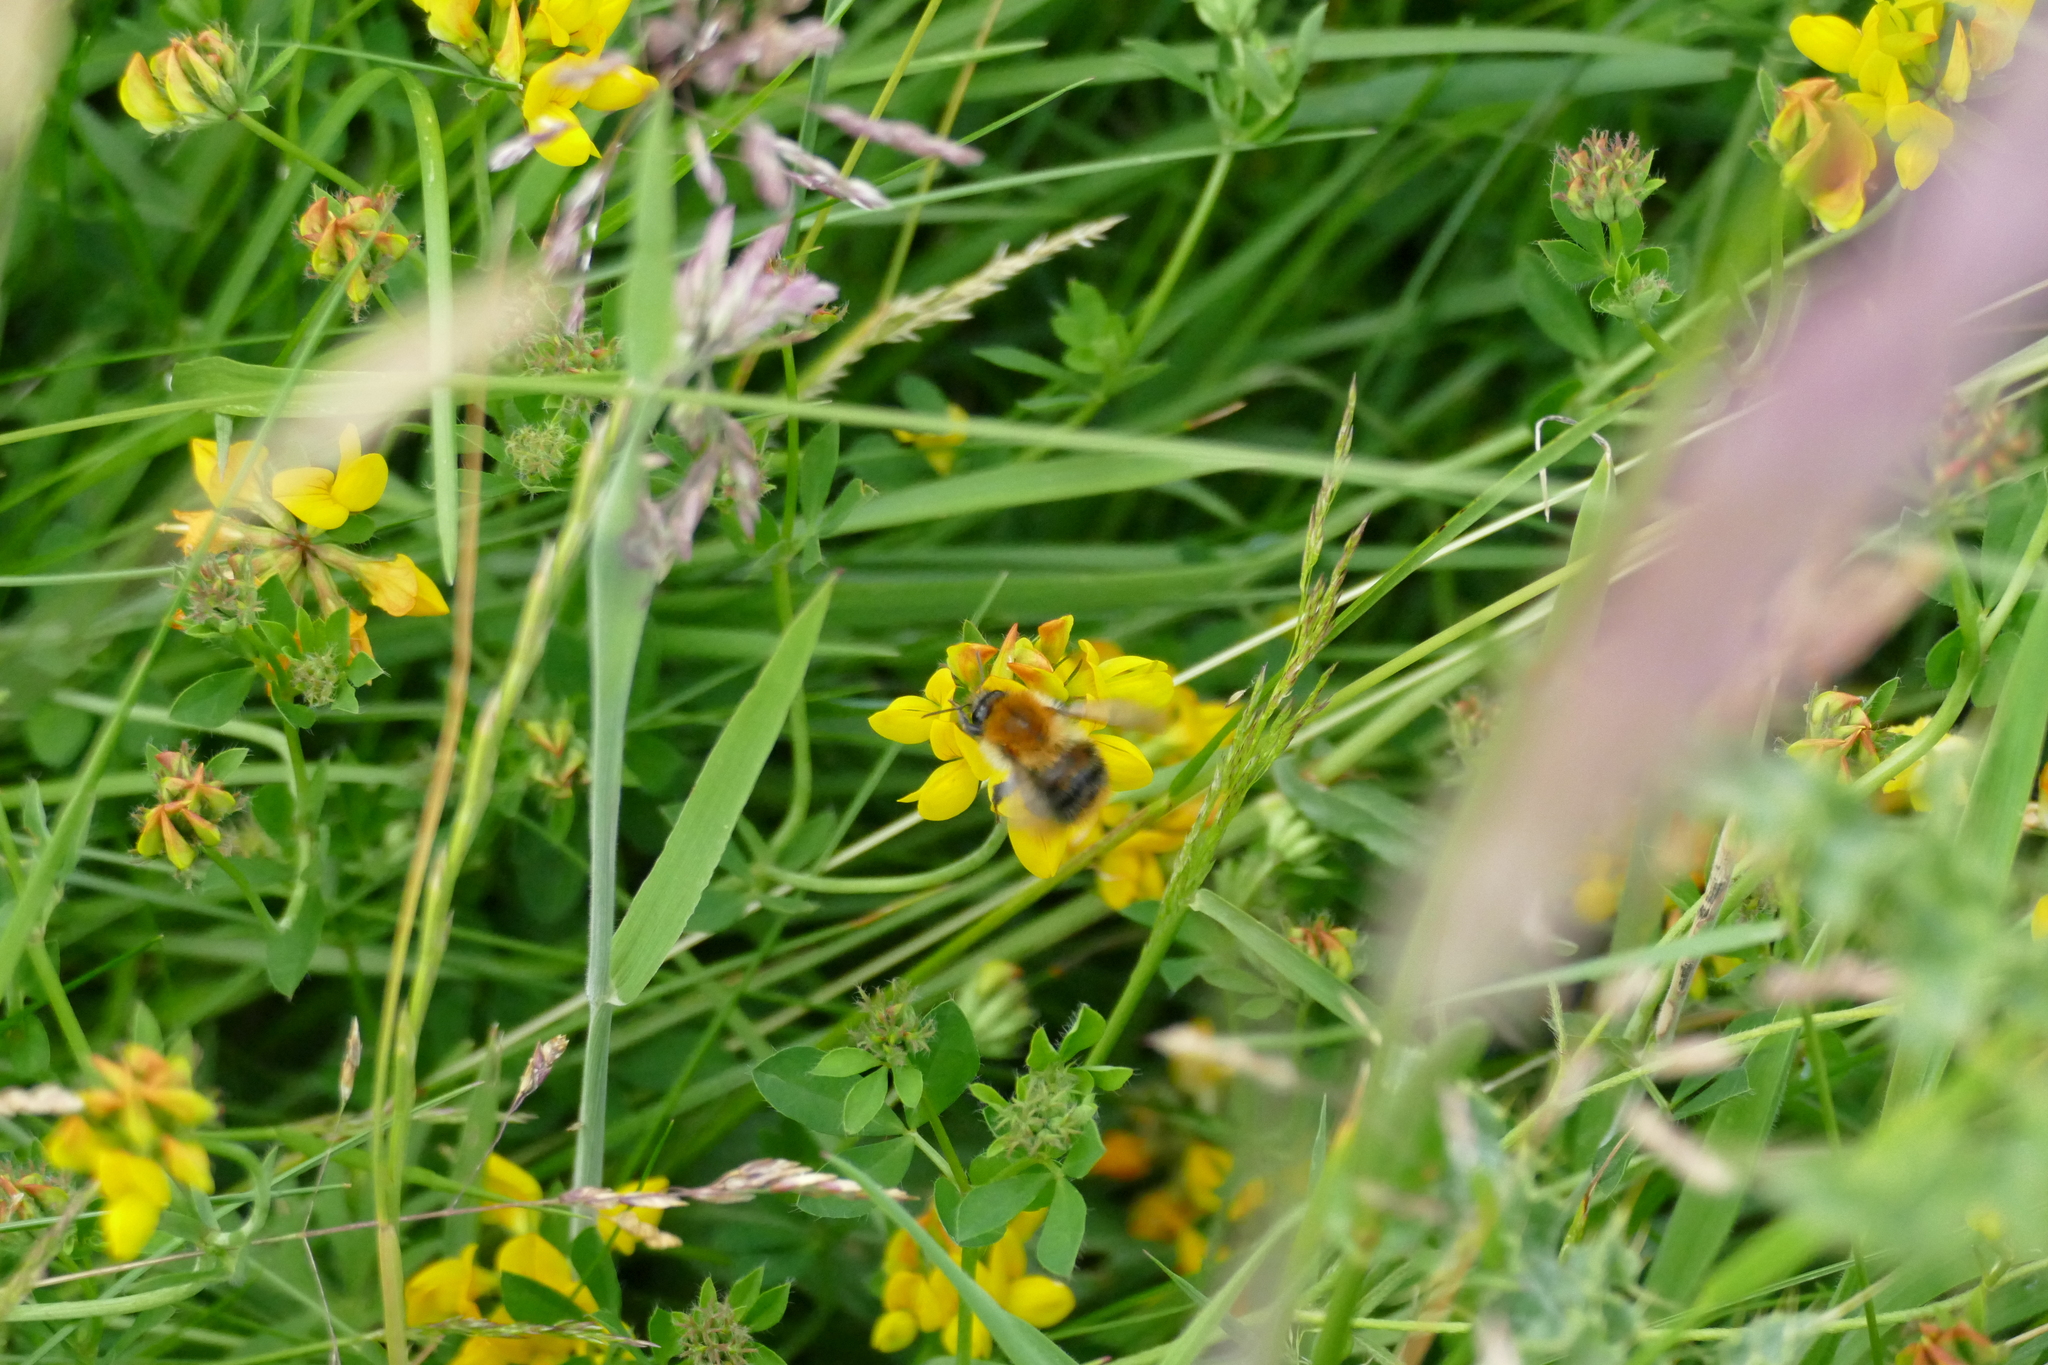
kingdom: Animalia
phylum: Arthropoda
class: Insecta
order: Hymenoptera
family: Apidae
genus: Bombus
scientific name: Bombus pascuorum
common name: Common carder bee
